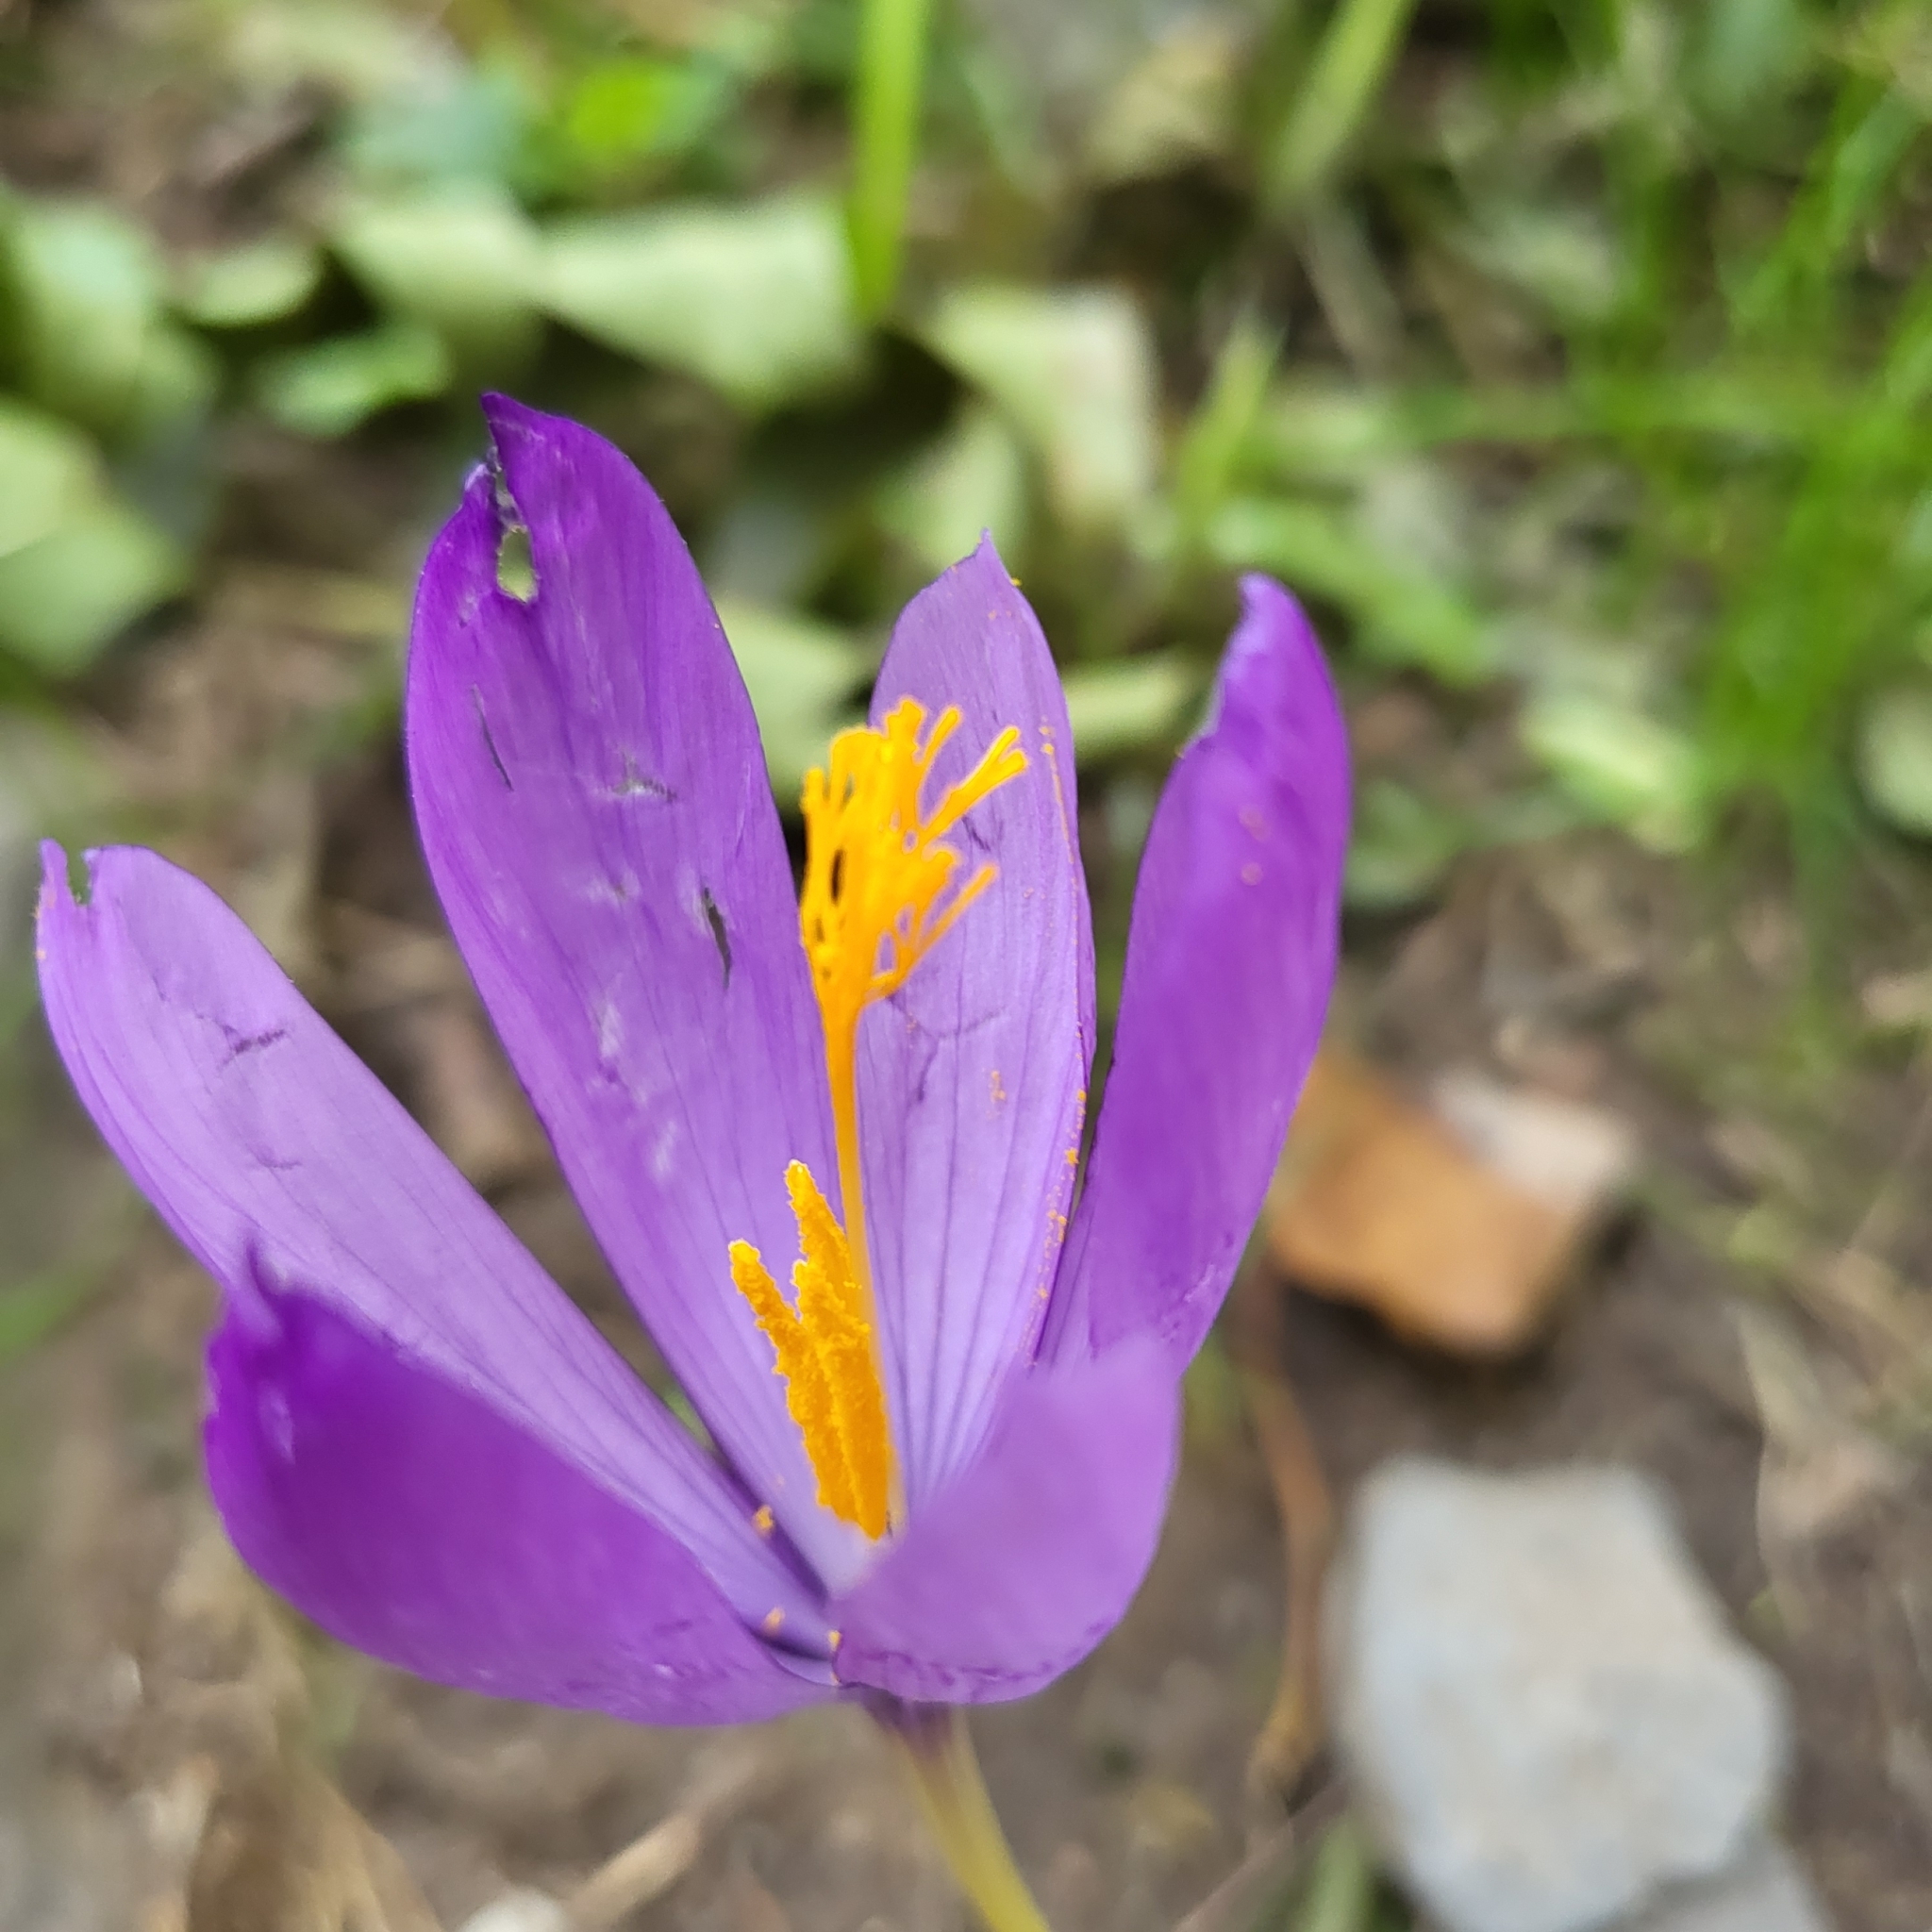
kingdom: Plantae
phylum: Tracheophyta
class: Liliopsida
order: Asparagales
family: Iridaceae
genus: Crocus
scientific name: Crocus nudiflorus
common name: Autumn crocus
